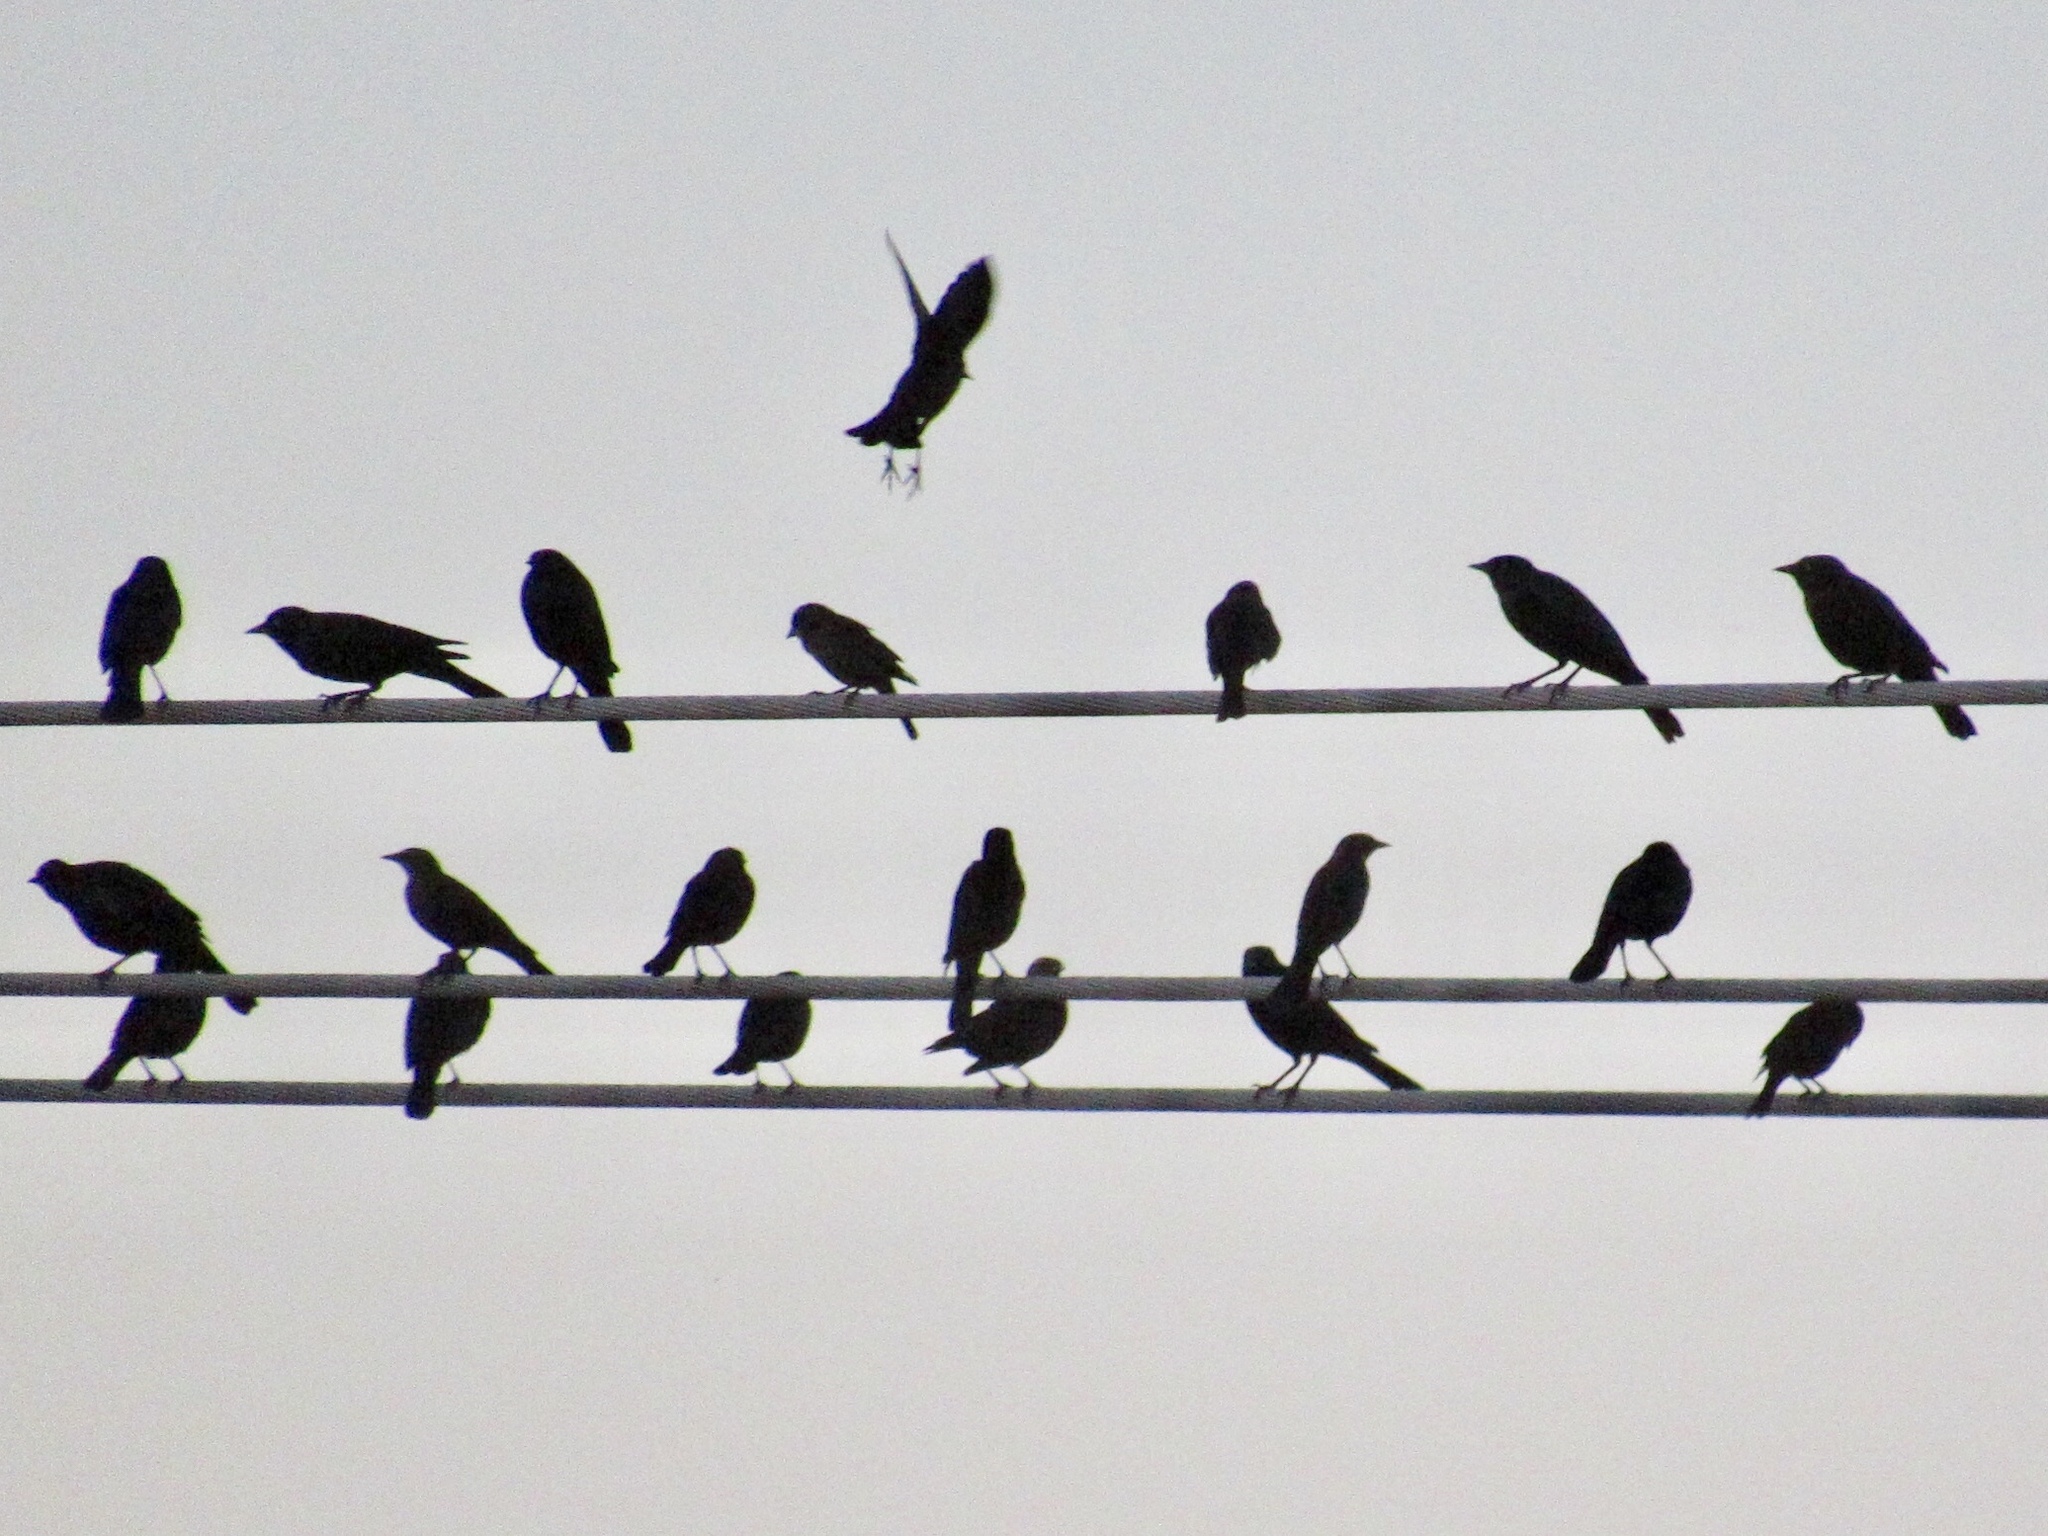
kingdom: Animalia
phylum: Chordata
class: Aves
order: Passeriformes
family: Icteridae
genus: Agelaius
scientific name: Agelaius phoeniceus
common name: Red-winged blackbird
